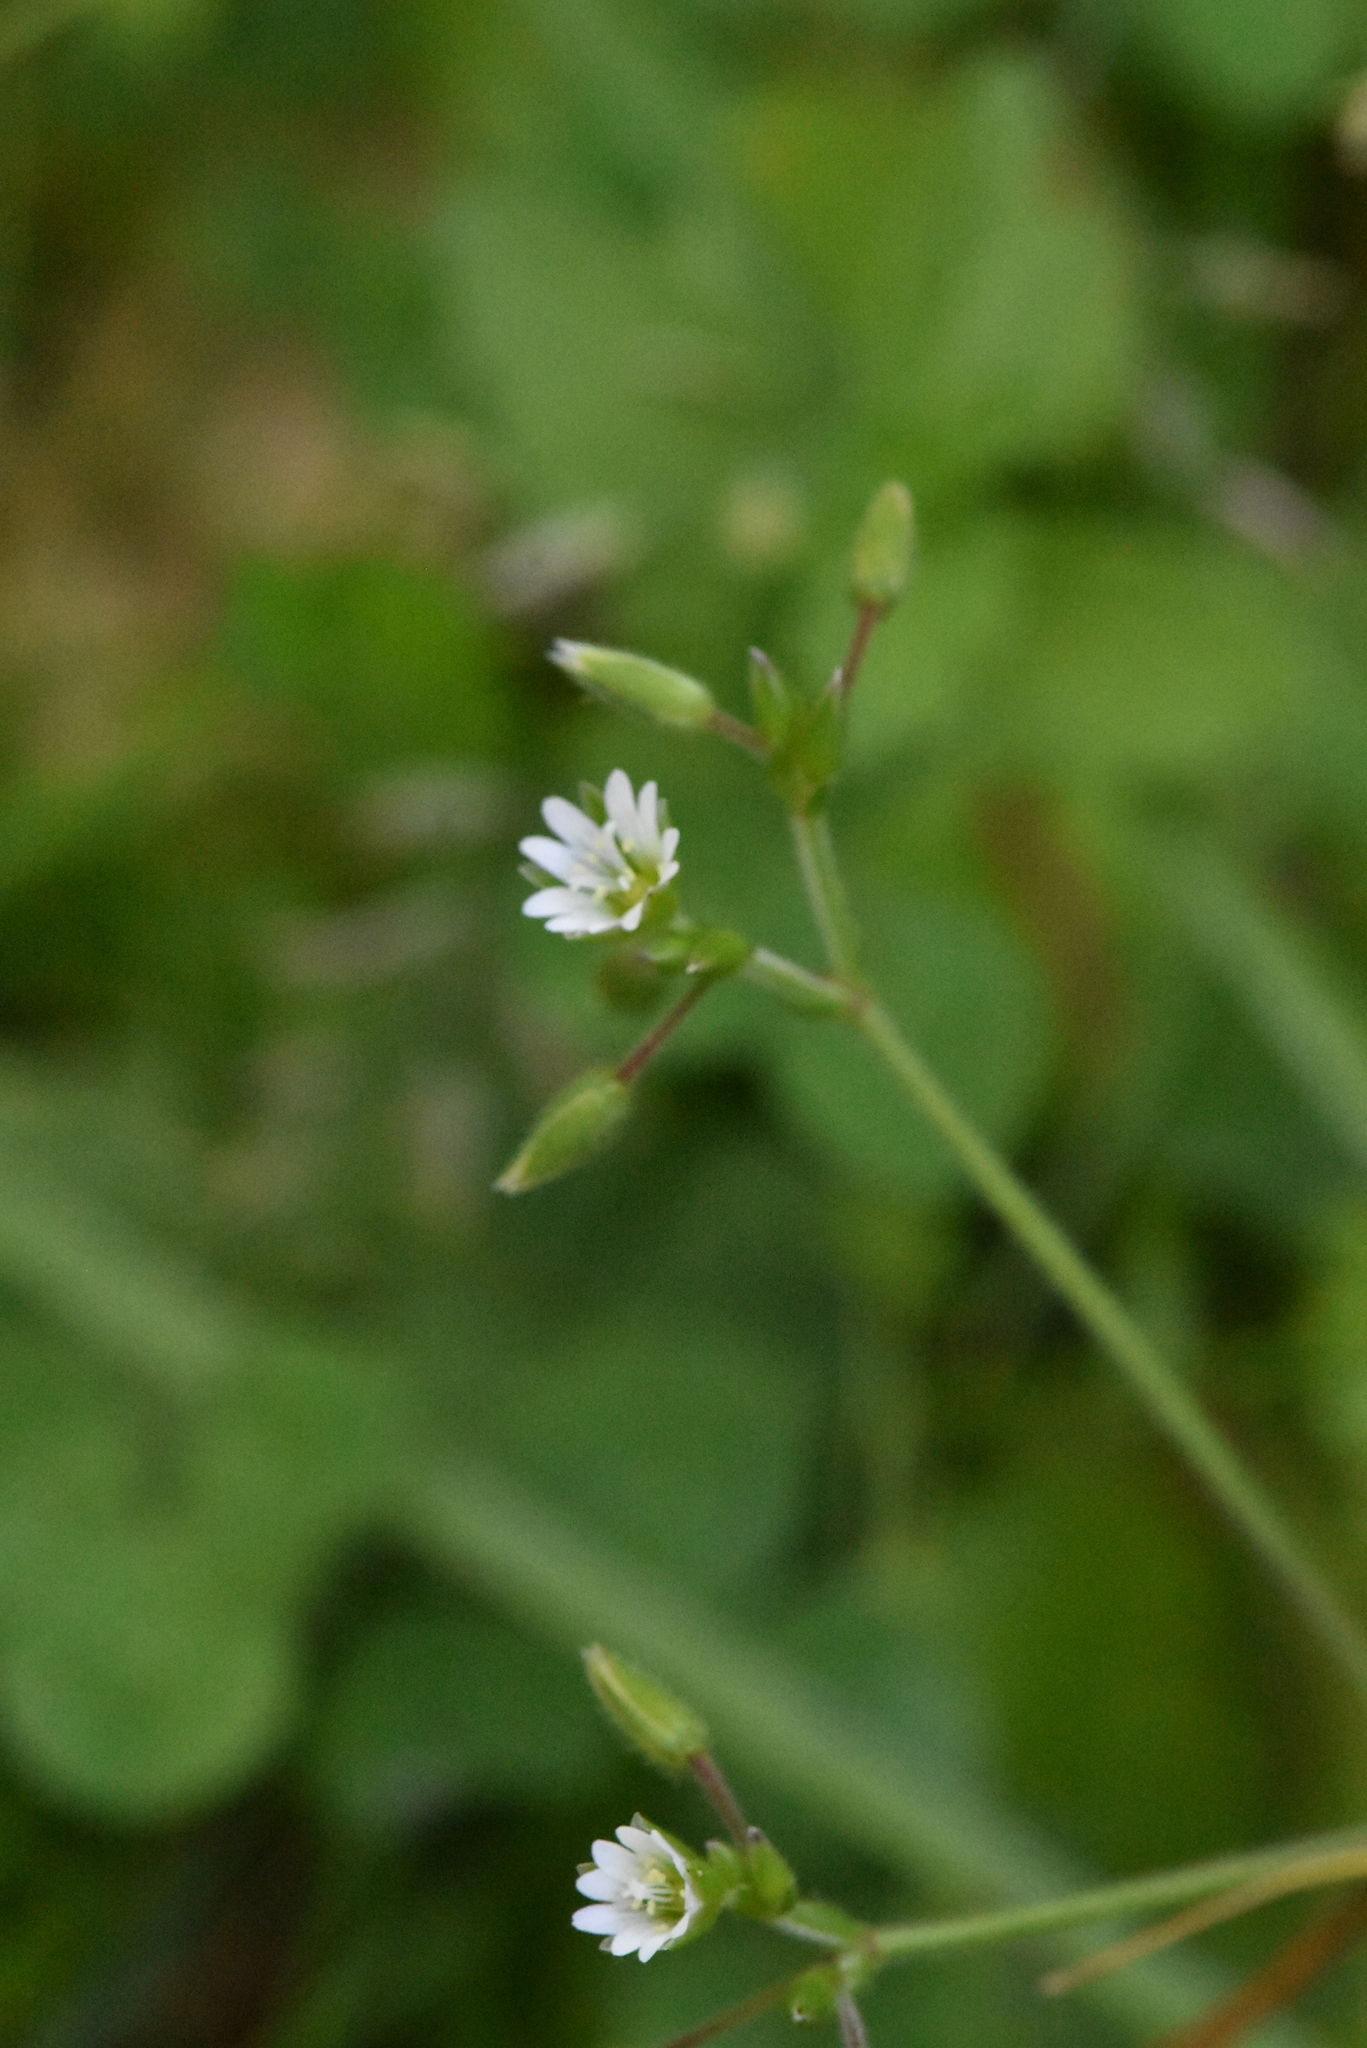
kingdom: Plantae
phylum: Tracheophyta
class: Magnoliopsida
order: Caryophyllales
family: Caryophyllaceae
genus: Cerastium
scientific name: Cerastium holosteoides
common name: Big chickweed
